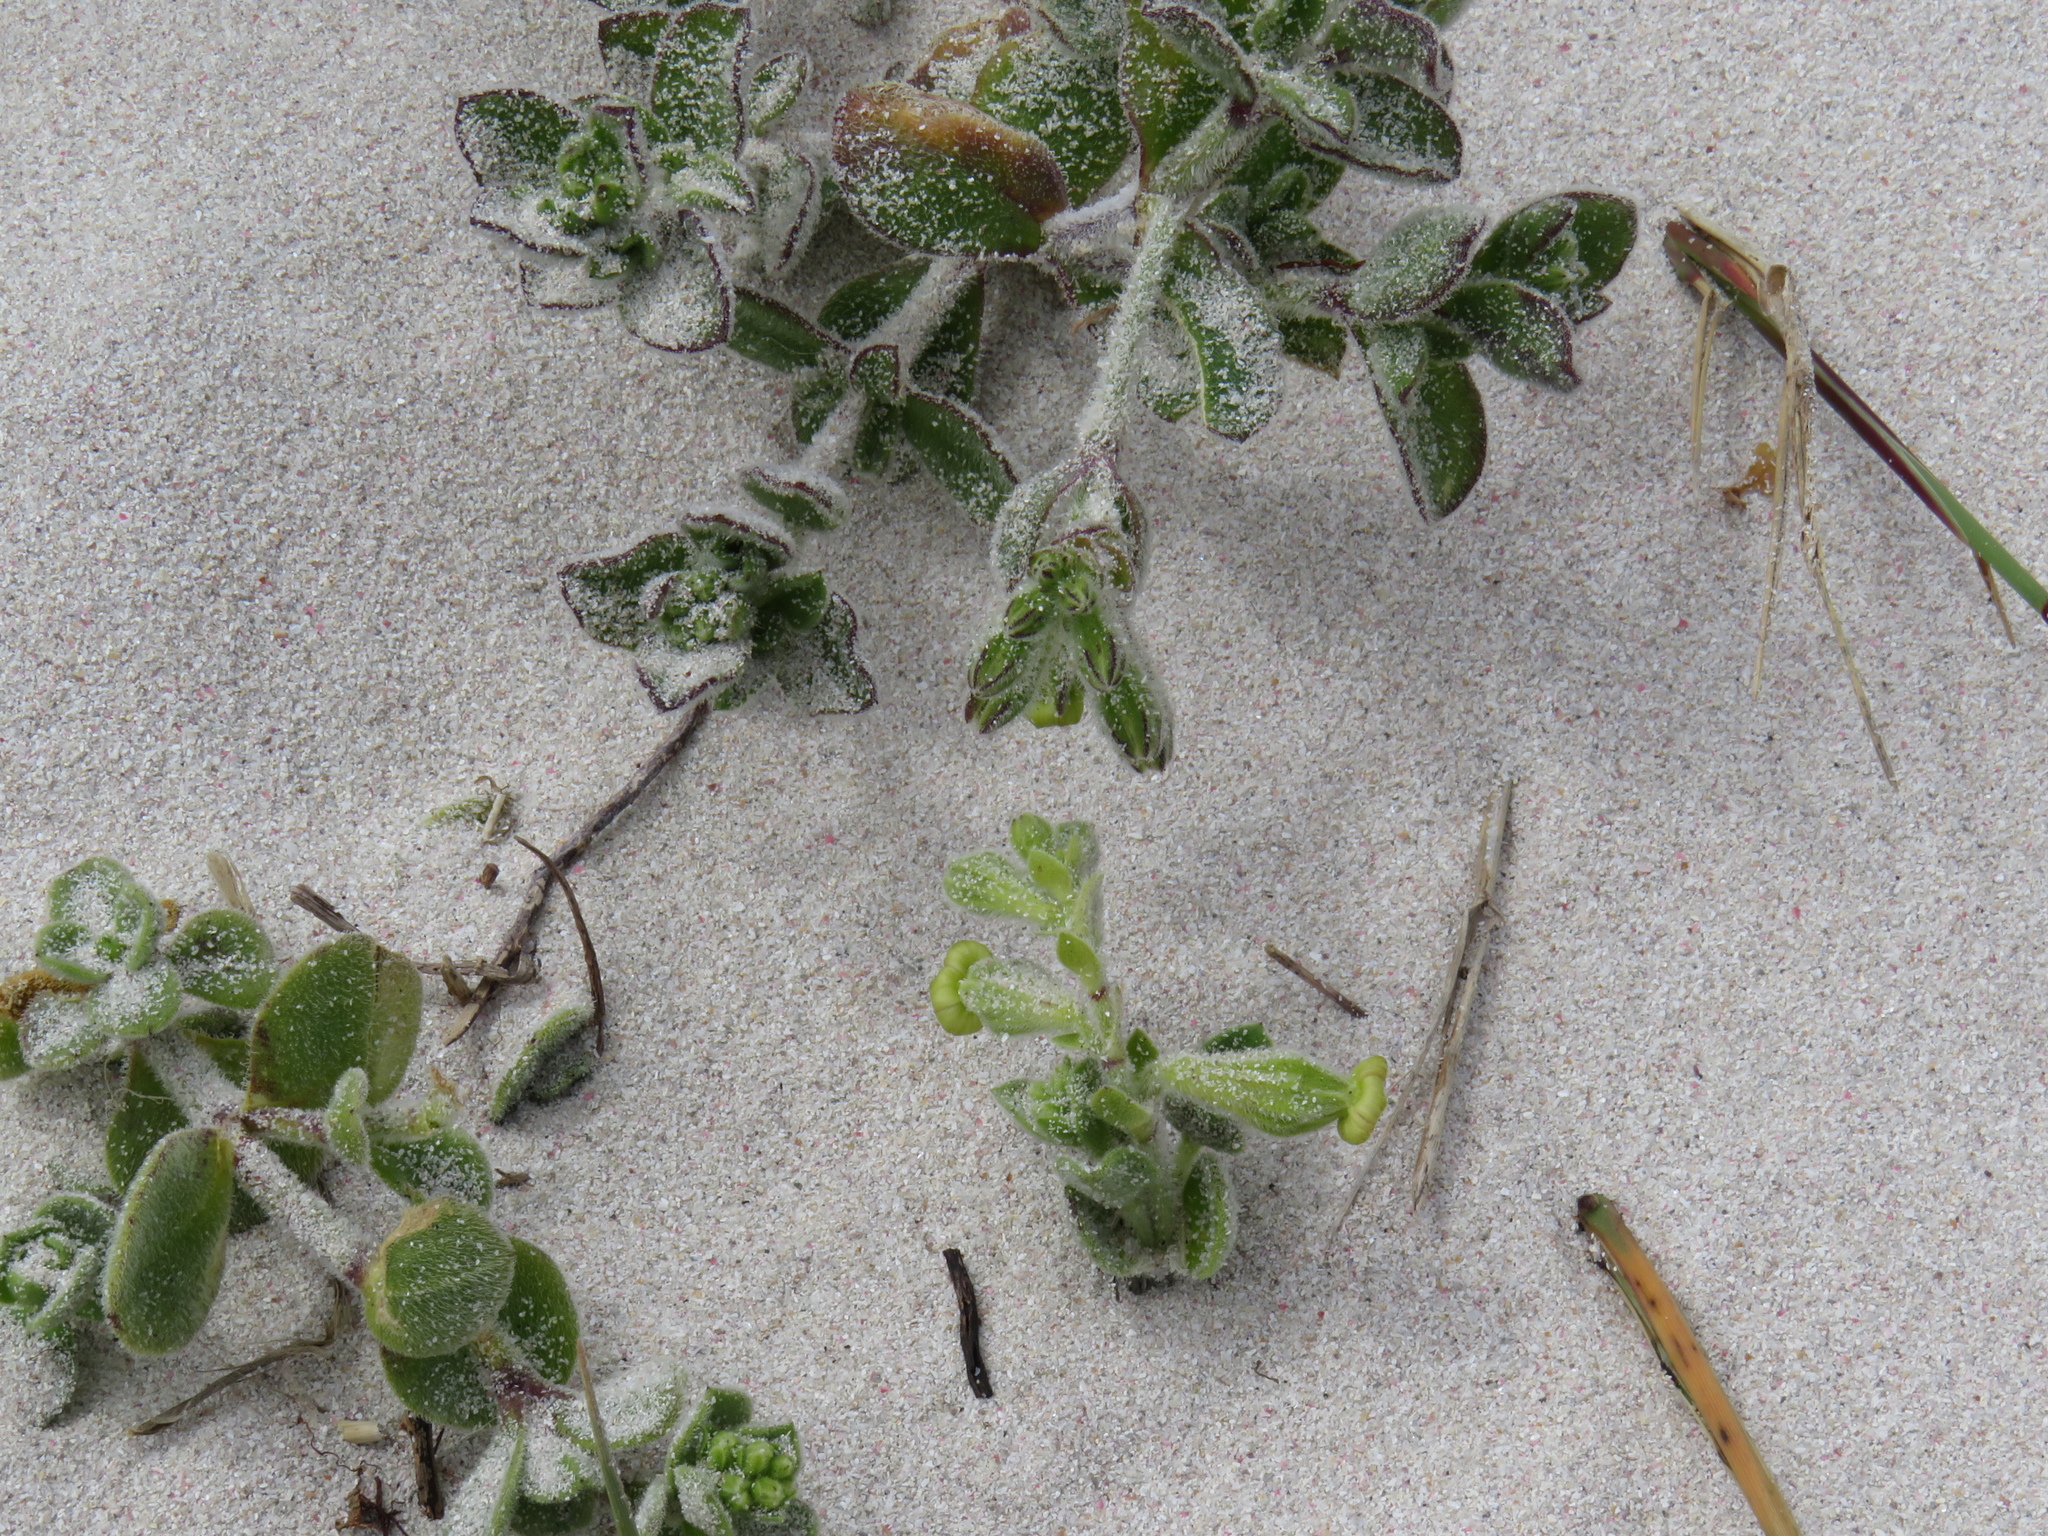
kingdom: Plantae
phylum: Tracheophyta
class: Magnoliopsida
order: Caryophyllales
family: Caryophyllaceae
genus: Silene
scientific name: Silene crassifolia
